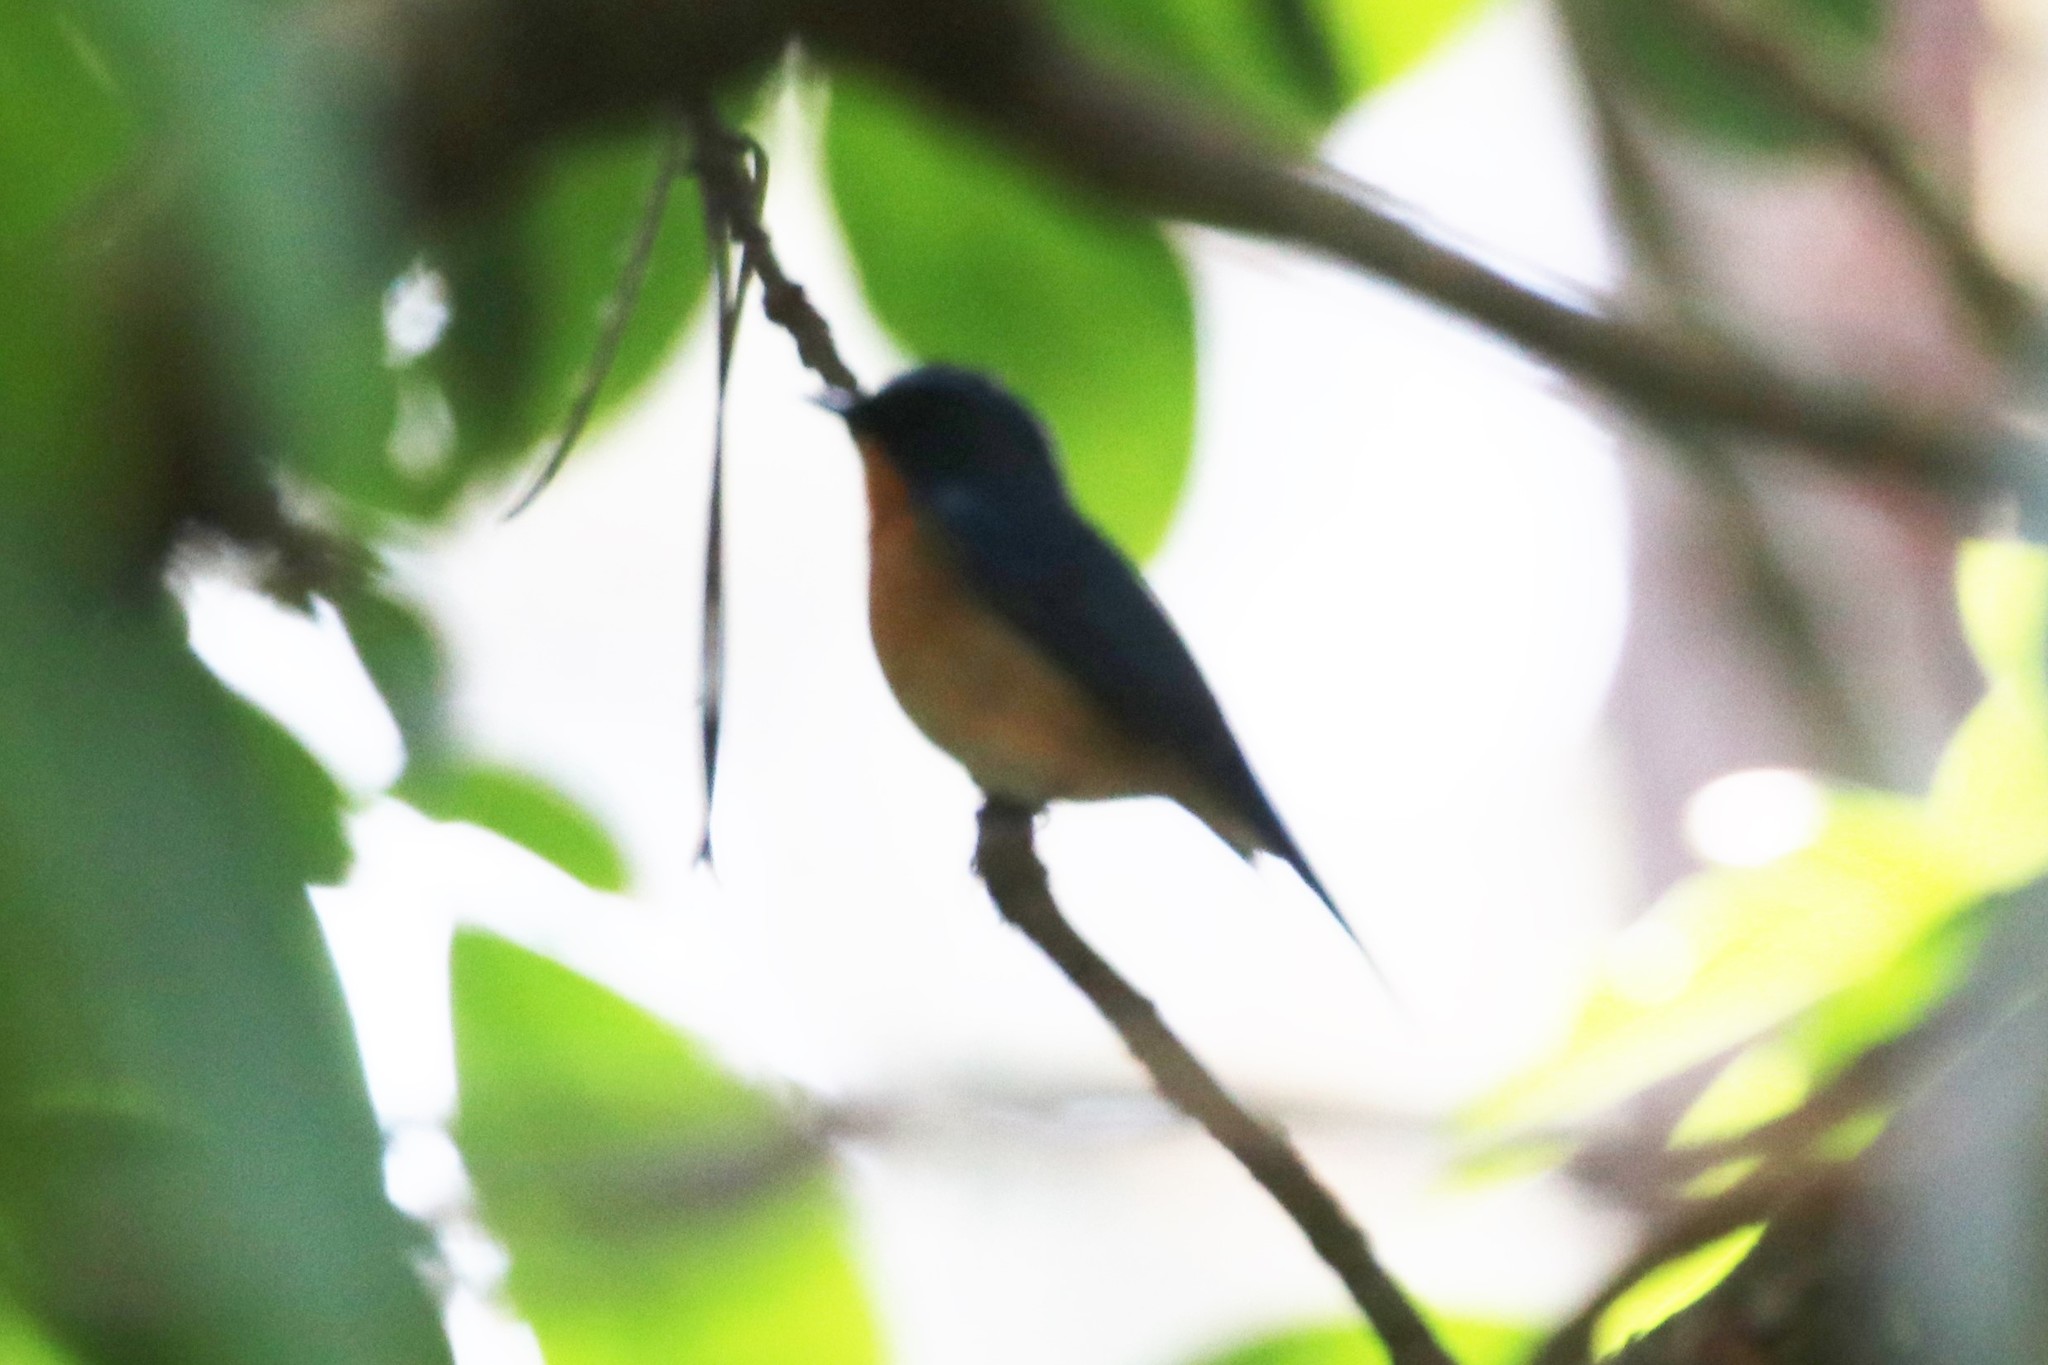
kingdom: Animalia
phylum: Chordata
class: Aves
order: Passeriformes
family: Muscicapidae
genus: Cyornis
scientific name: Cyornis whitei
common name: Hill blue flycatcher
